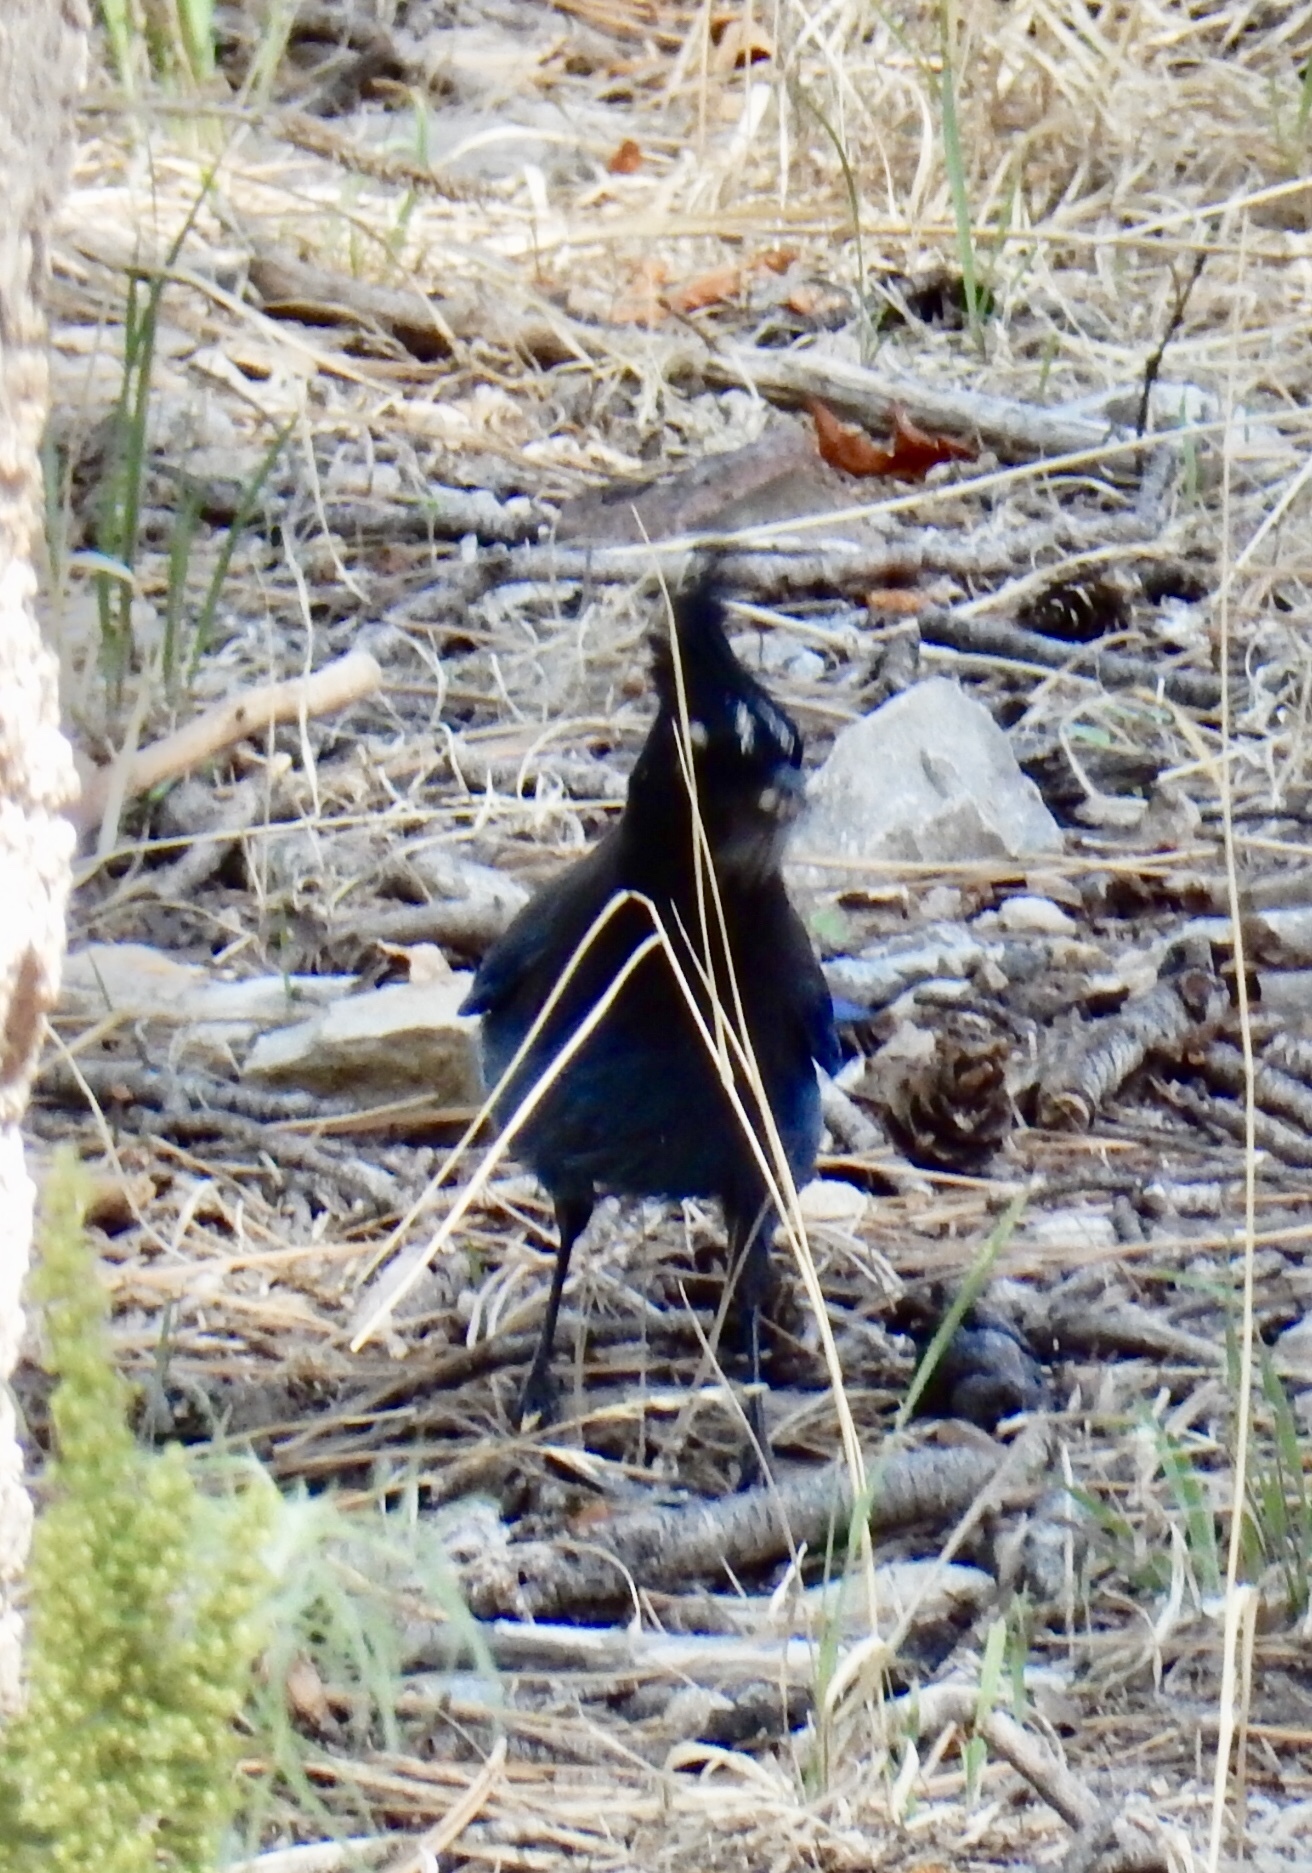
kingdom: Animalia
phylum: Chordata
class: Aves
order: Passeriformes
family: Corvidae
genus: Cyanocitta
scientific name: Cyanocitta stelleri
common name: Steller's jay
